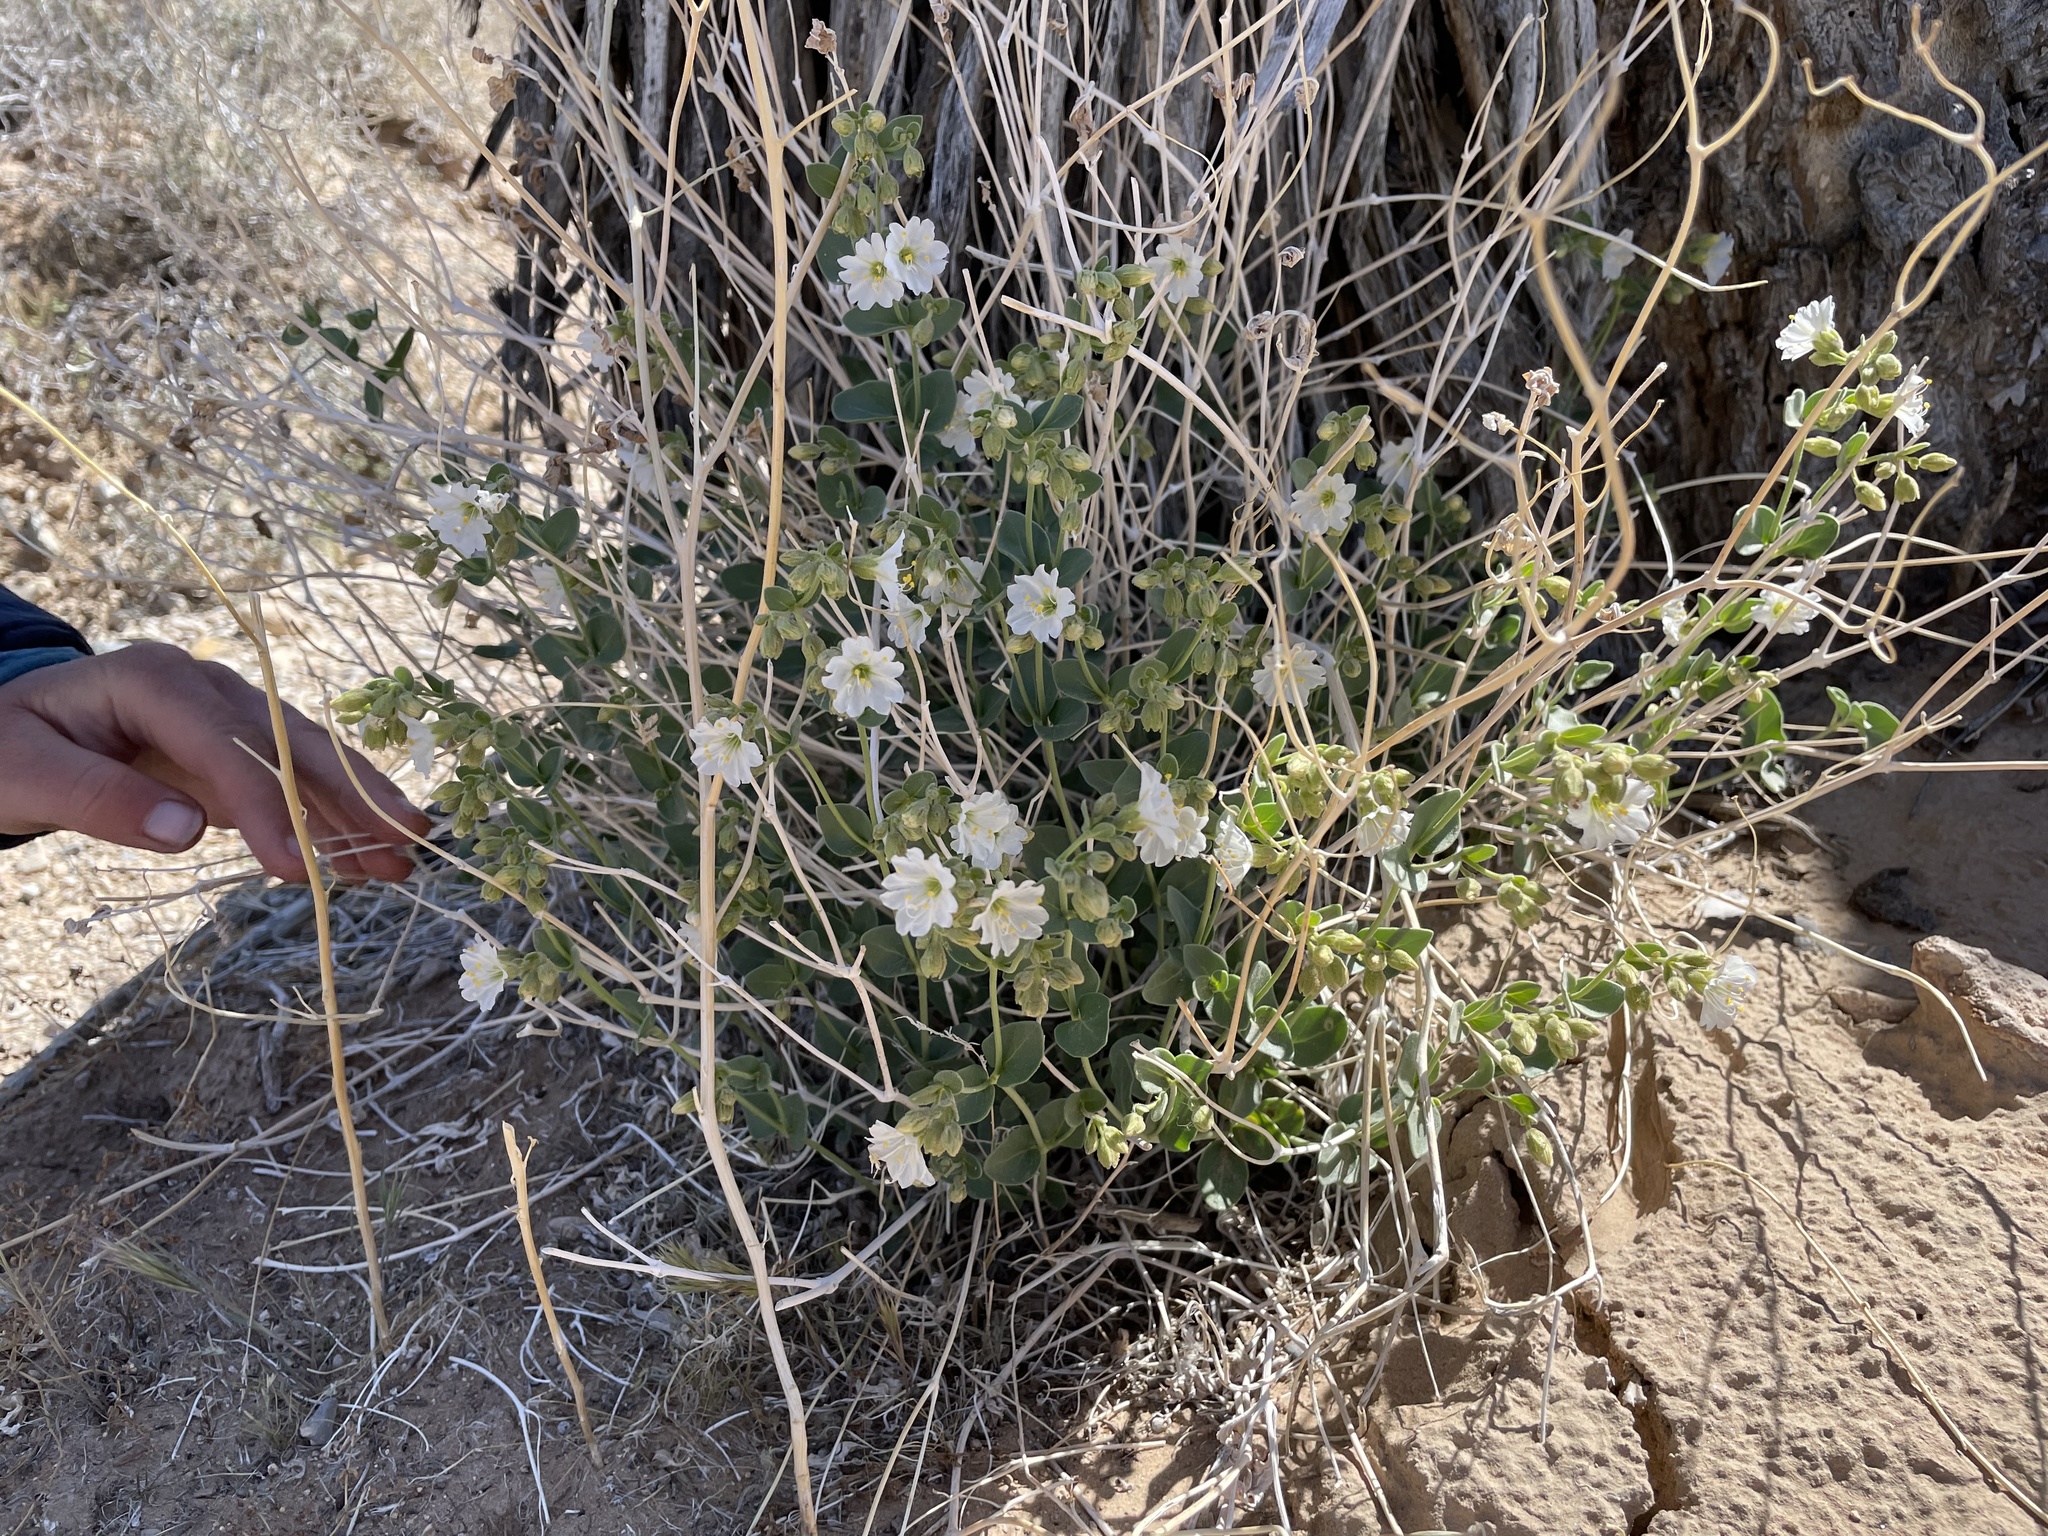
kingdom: Plantae
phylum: Tracheophyta
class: Magnoliopsida
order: Caryophyllales
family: Nyctaginaceae
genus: Mirabilis
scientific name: Mirabilis laevis
